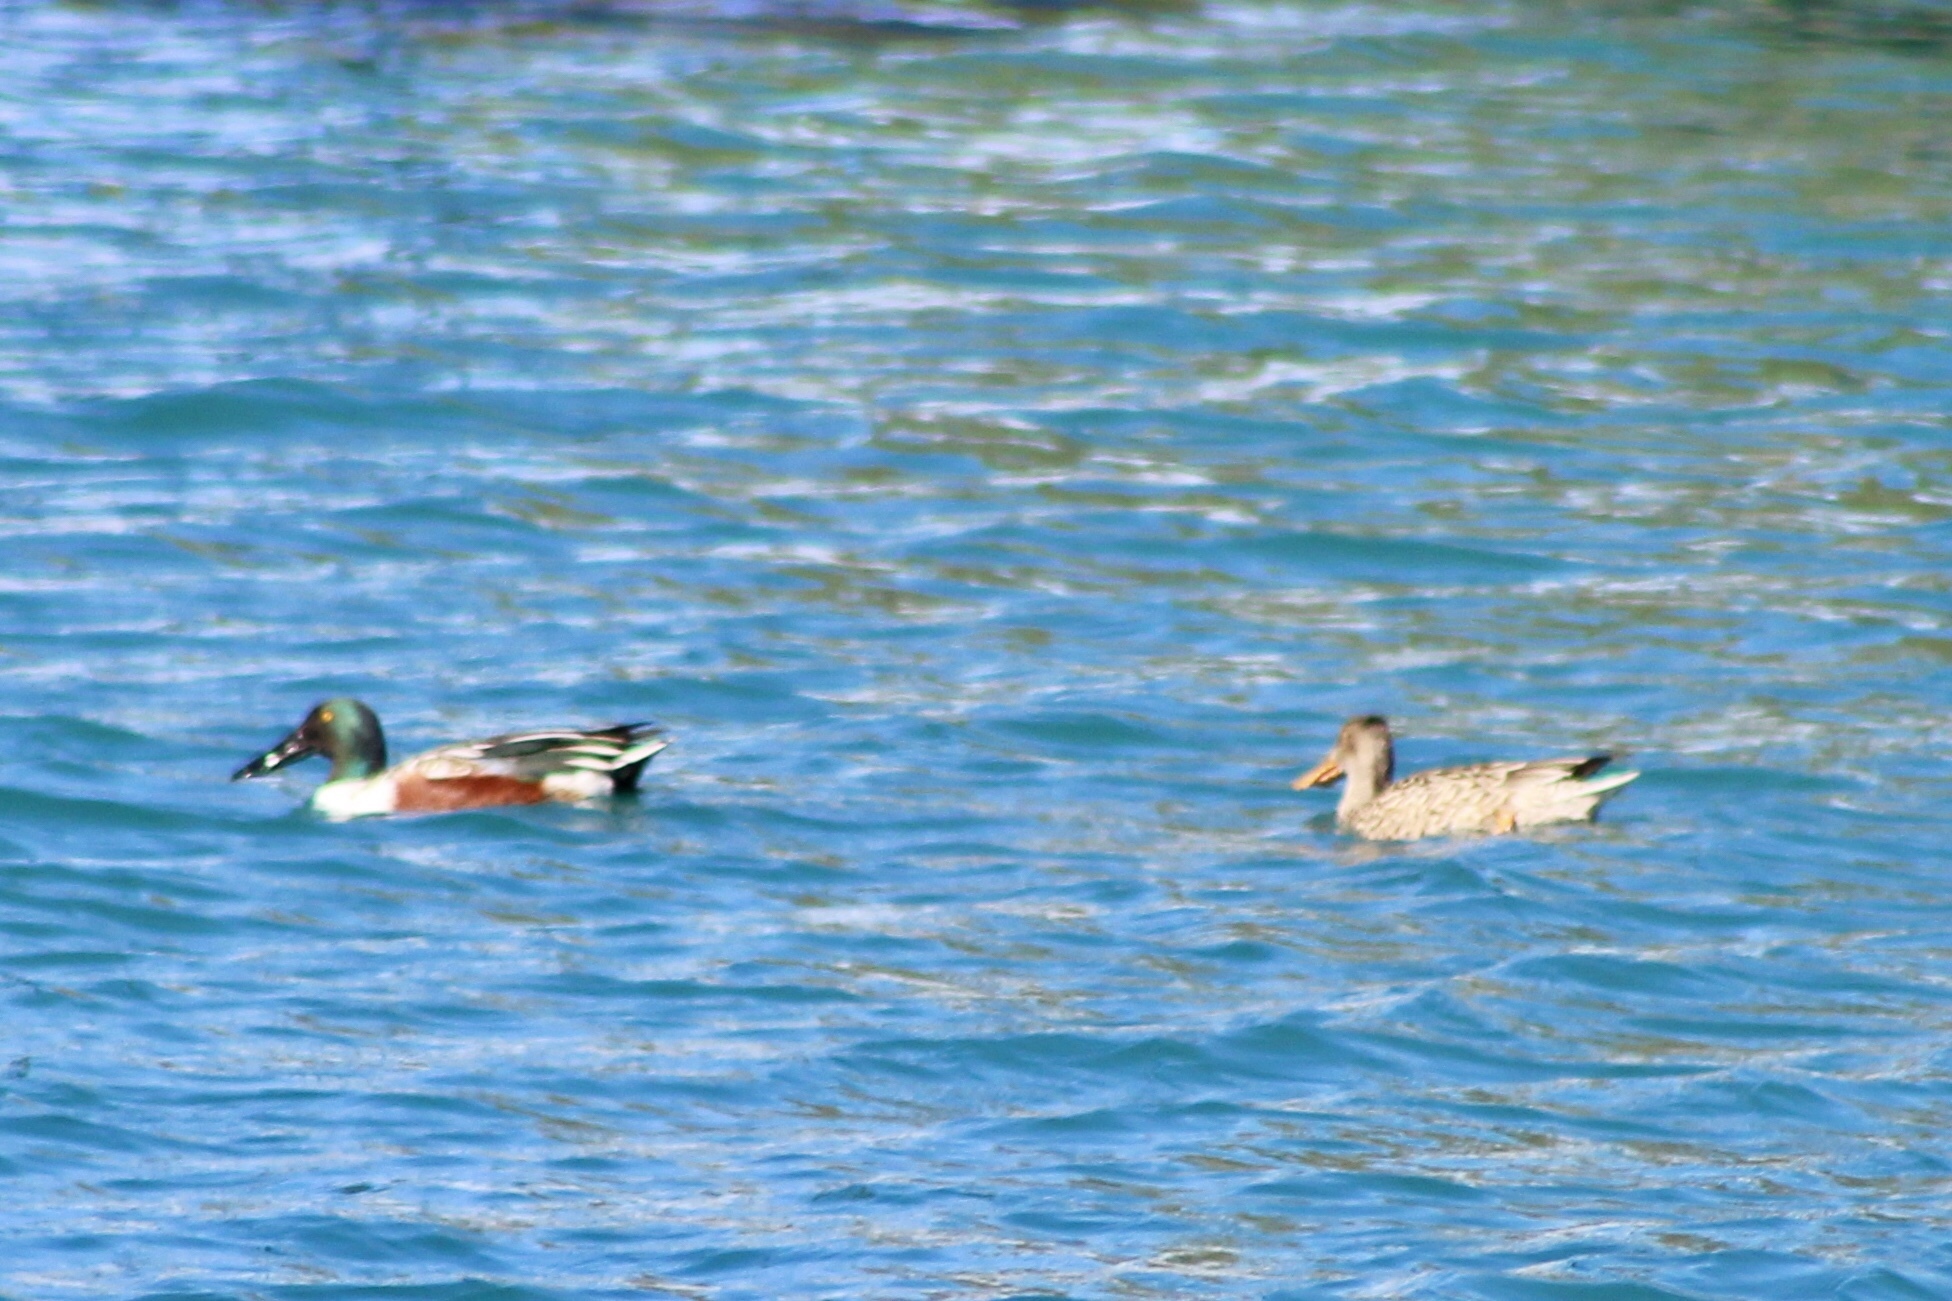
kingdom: Animalia
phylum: Chordata
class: Aves
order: Anseriformes
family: Anatidae
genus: Spatula
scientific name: Spatula clypeata
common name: Northern shoveler
